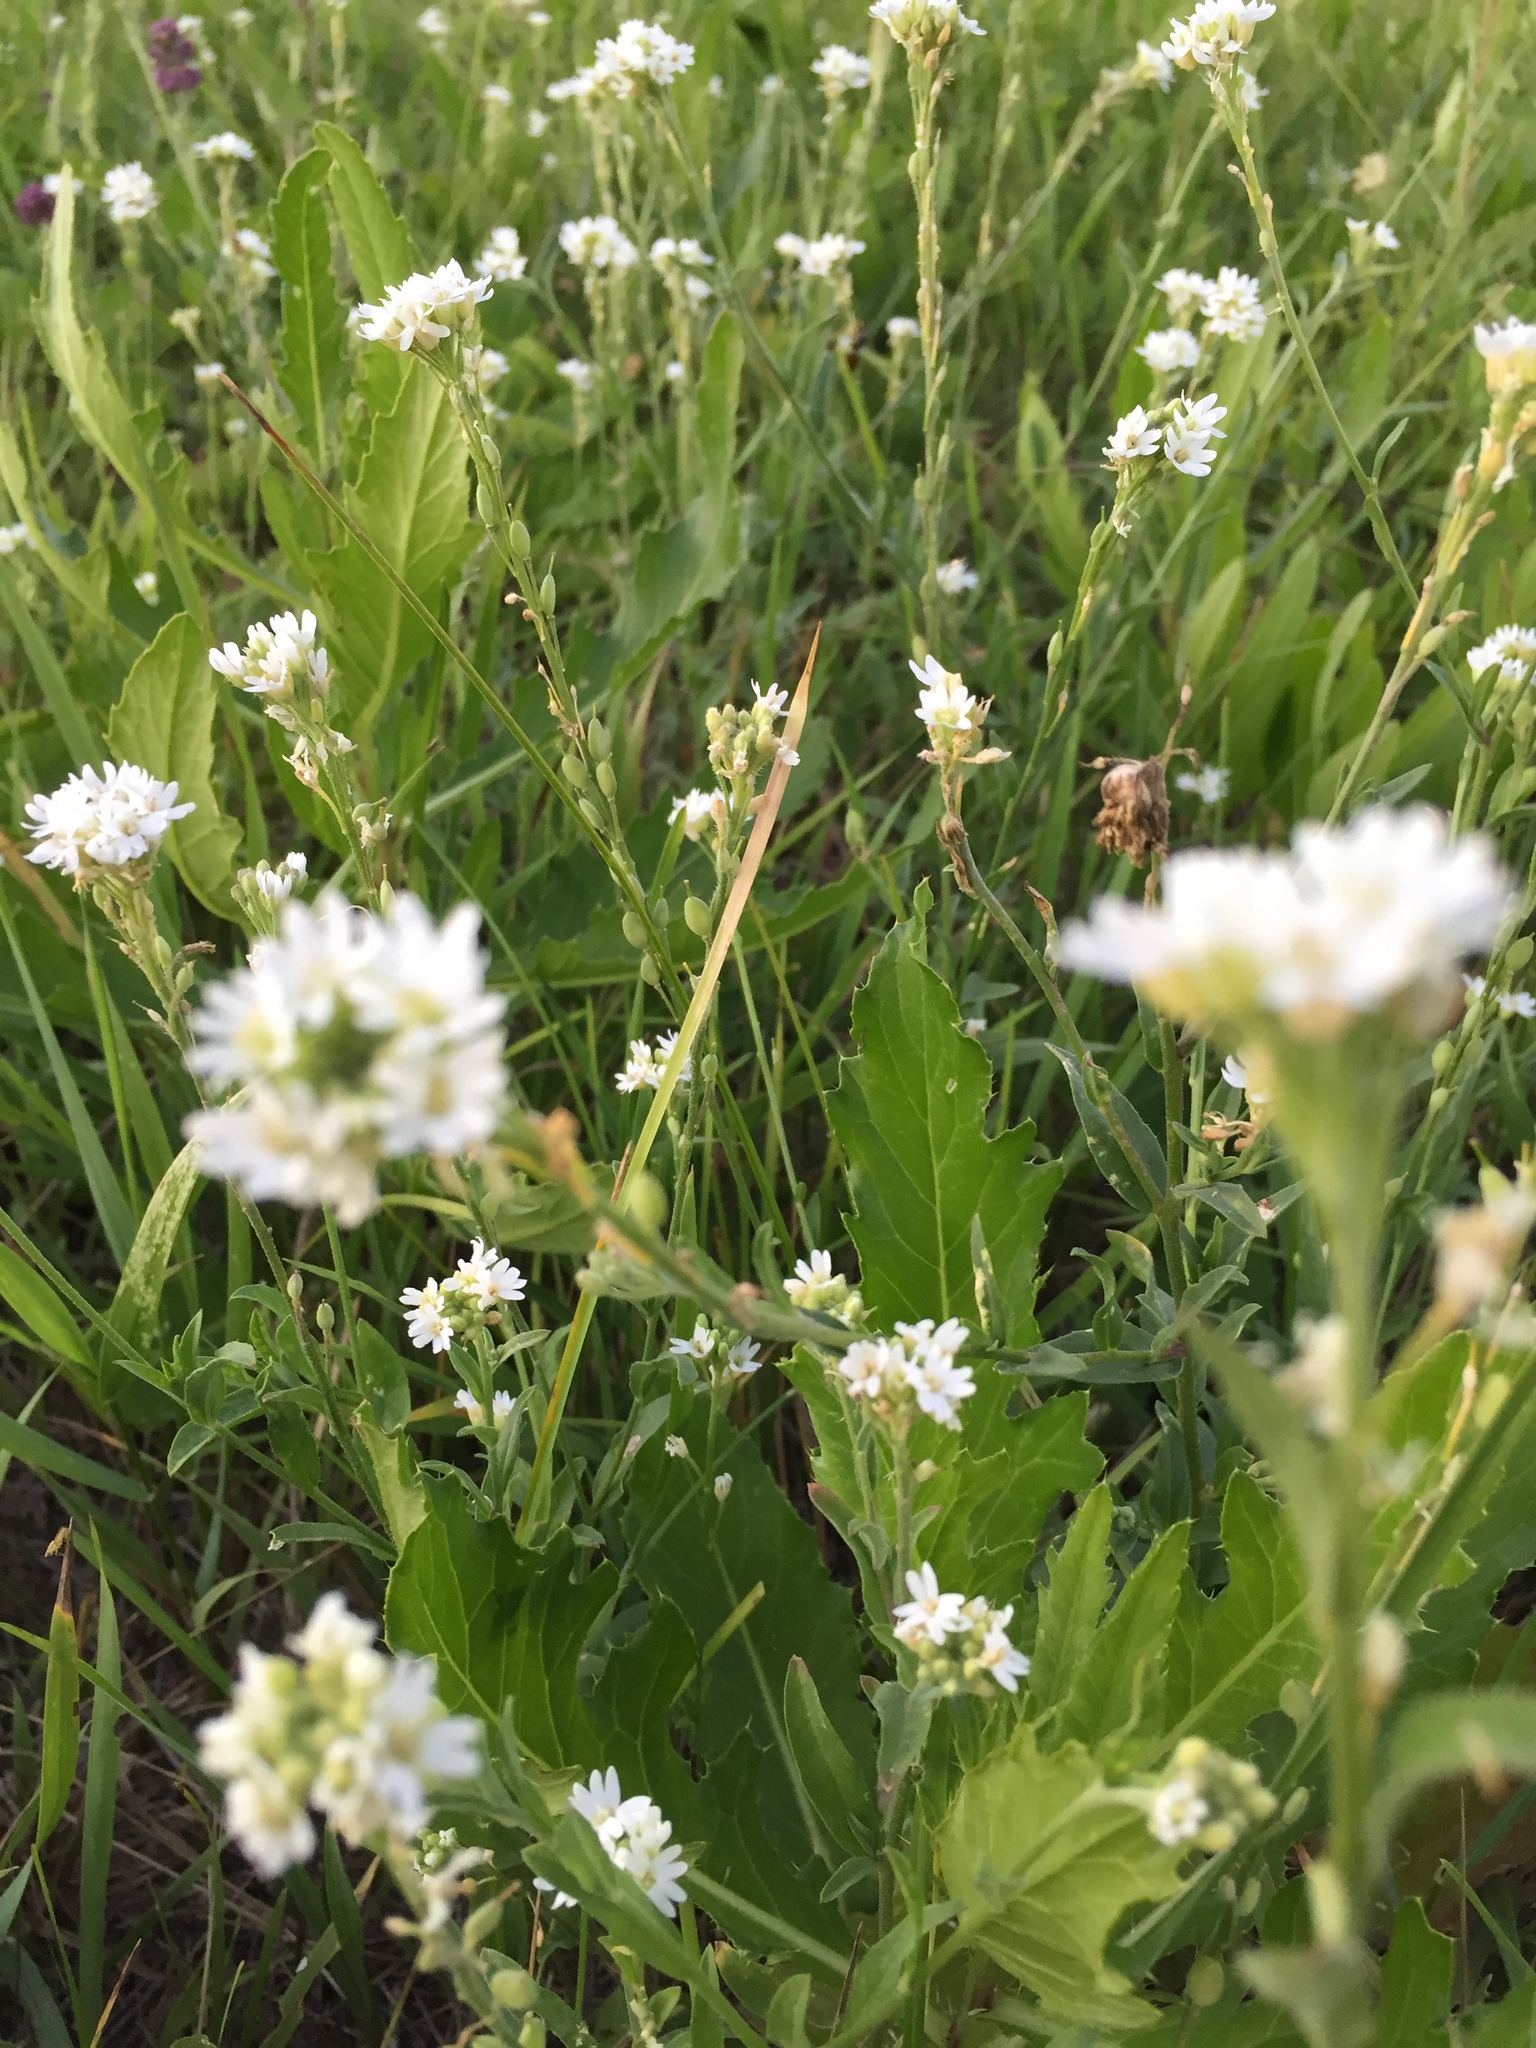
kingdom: Plantae
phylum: Tracheophyta
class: Magnoliopsida
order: Brassicales
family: Brassicaceae
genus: Berteroa
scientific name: Berteroa incana
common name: Hoary alison
